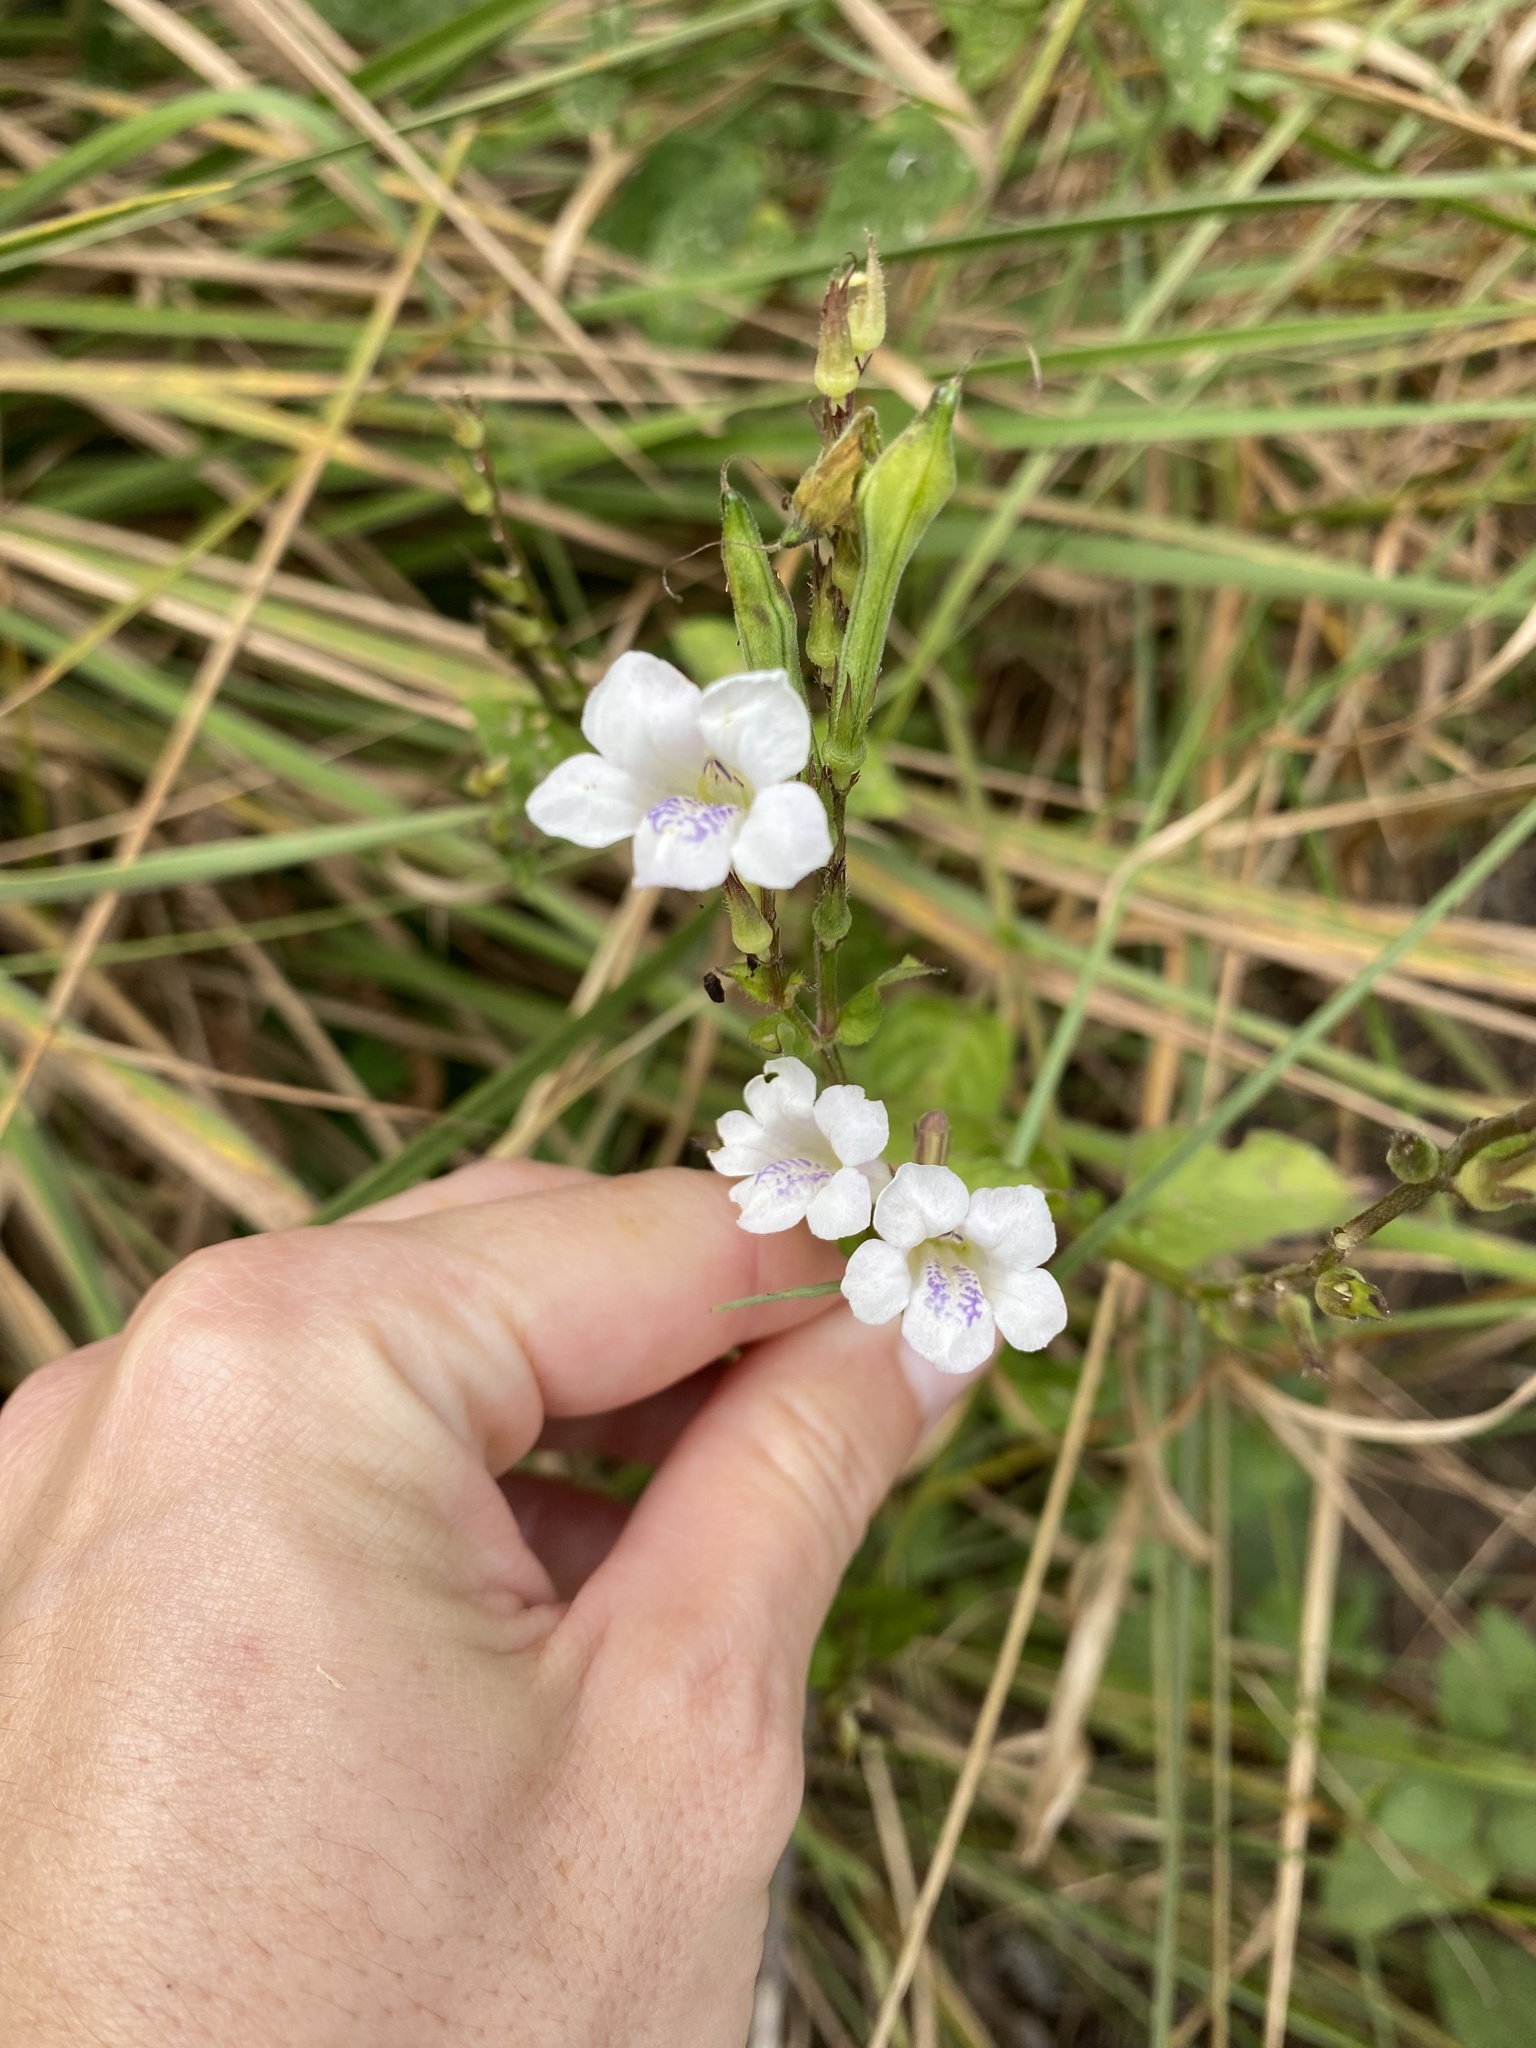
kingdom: Plantae
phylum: Tracheophyta
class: Magnoliopsida
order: Lamiales
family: Acanthaceae
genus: Asystasia
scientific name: Asystasia intrusa
